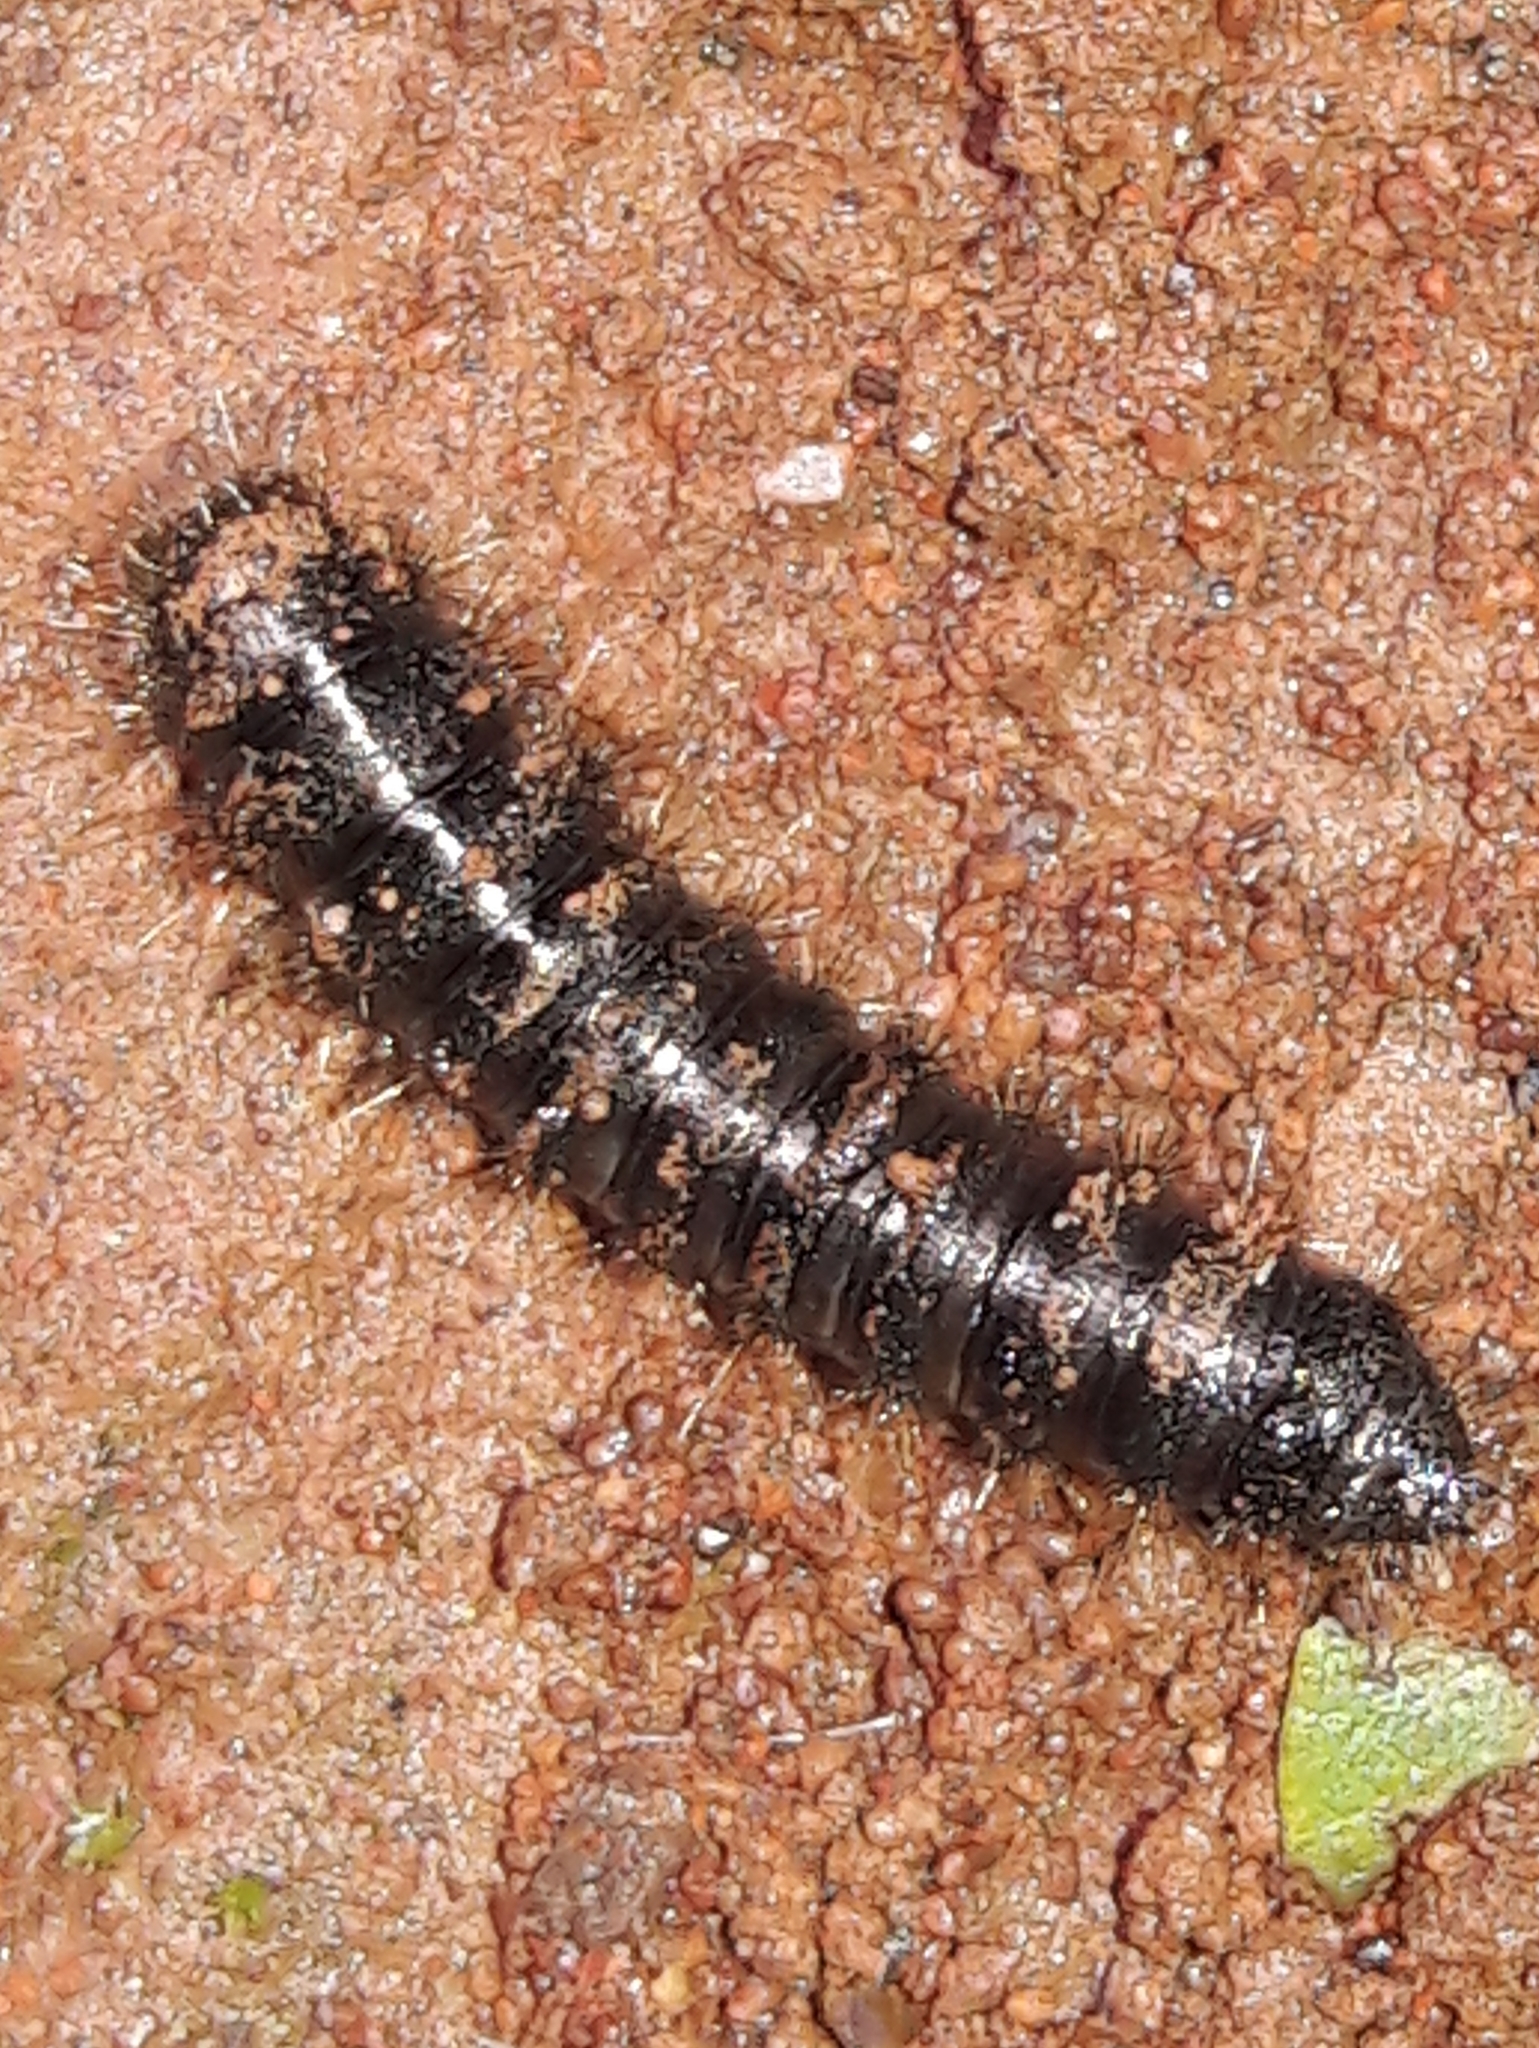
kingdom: Animalia
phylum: Arthropoda
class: Insecta
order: Coleoptera
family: Tenebrionidae
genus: Lagria
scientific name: Lagria villosa
